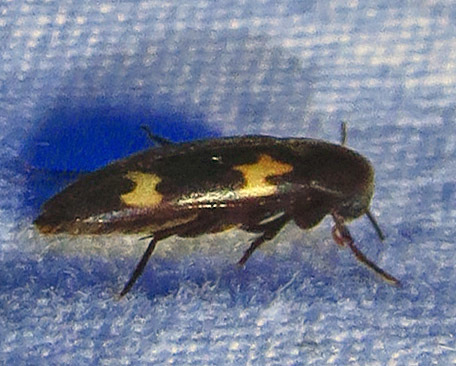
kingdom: Animalia
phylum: Arthropoda
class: Insecta
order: Coleoptera
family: Melandryidae
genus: Dircaea
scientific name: Dircaea liturata
